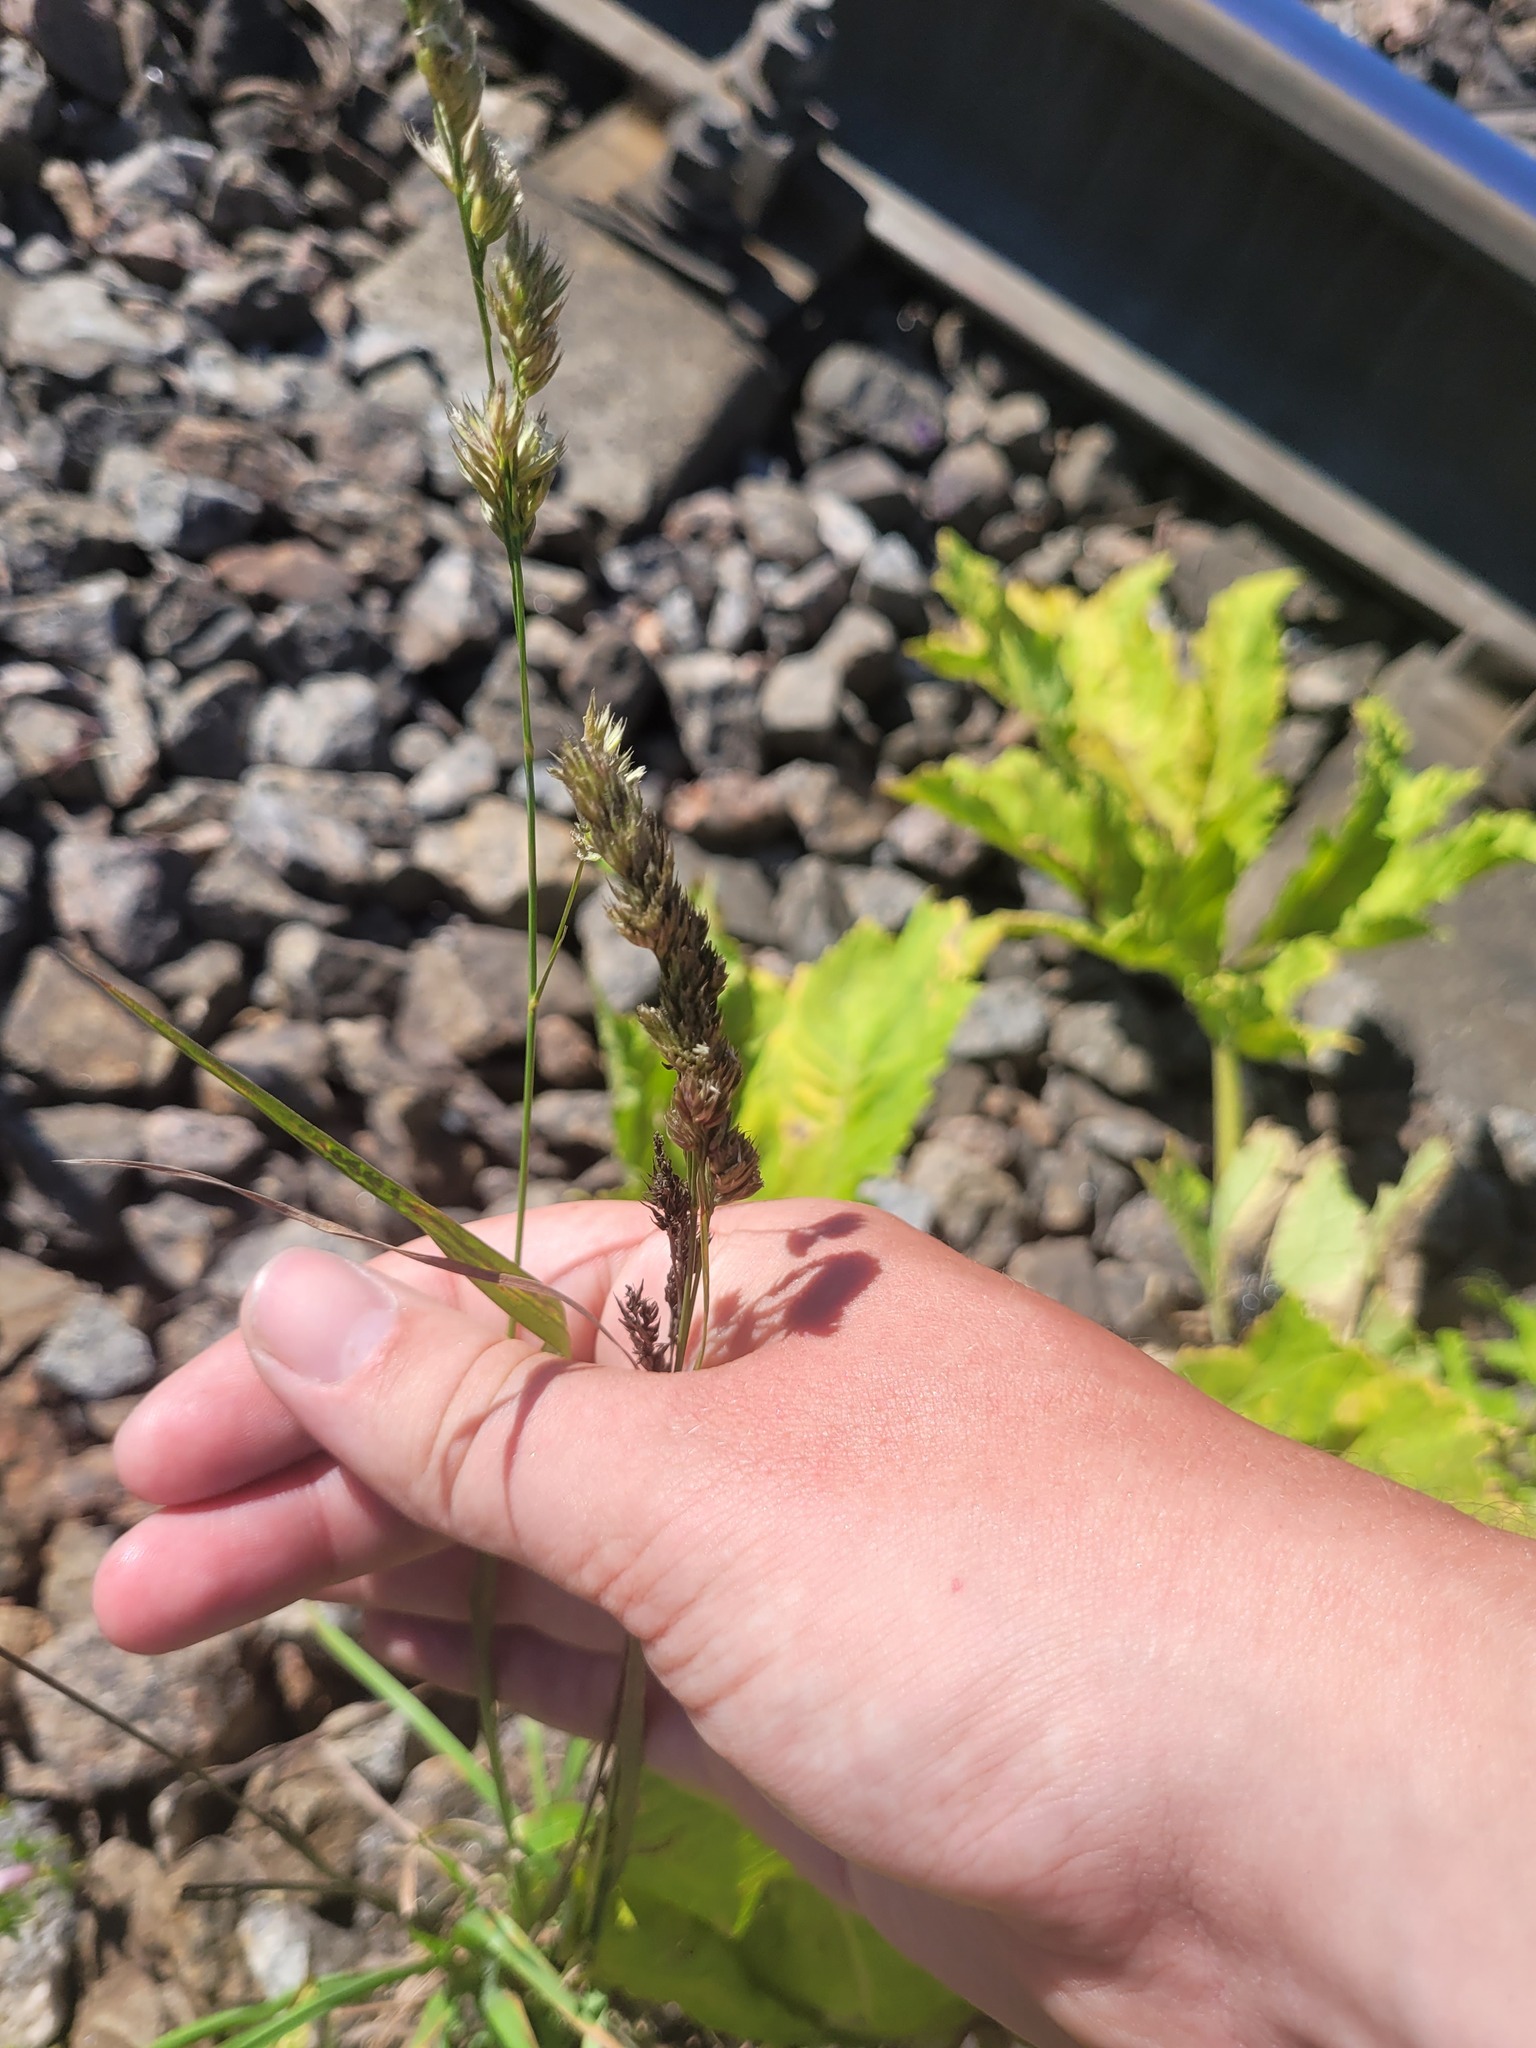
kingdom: Plantae
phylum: Tracheophyta
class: Liliopsida
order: Poales
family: Poaceae
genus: Dactylis
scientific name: Dactylis glomerata
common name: Orchardgrass
